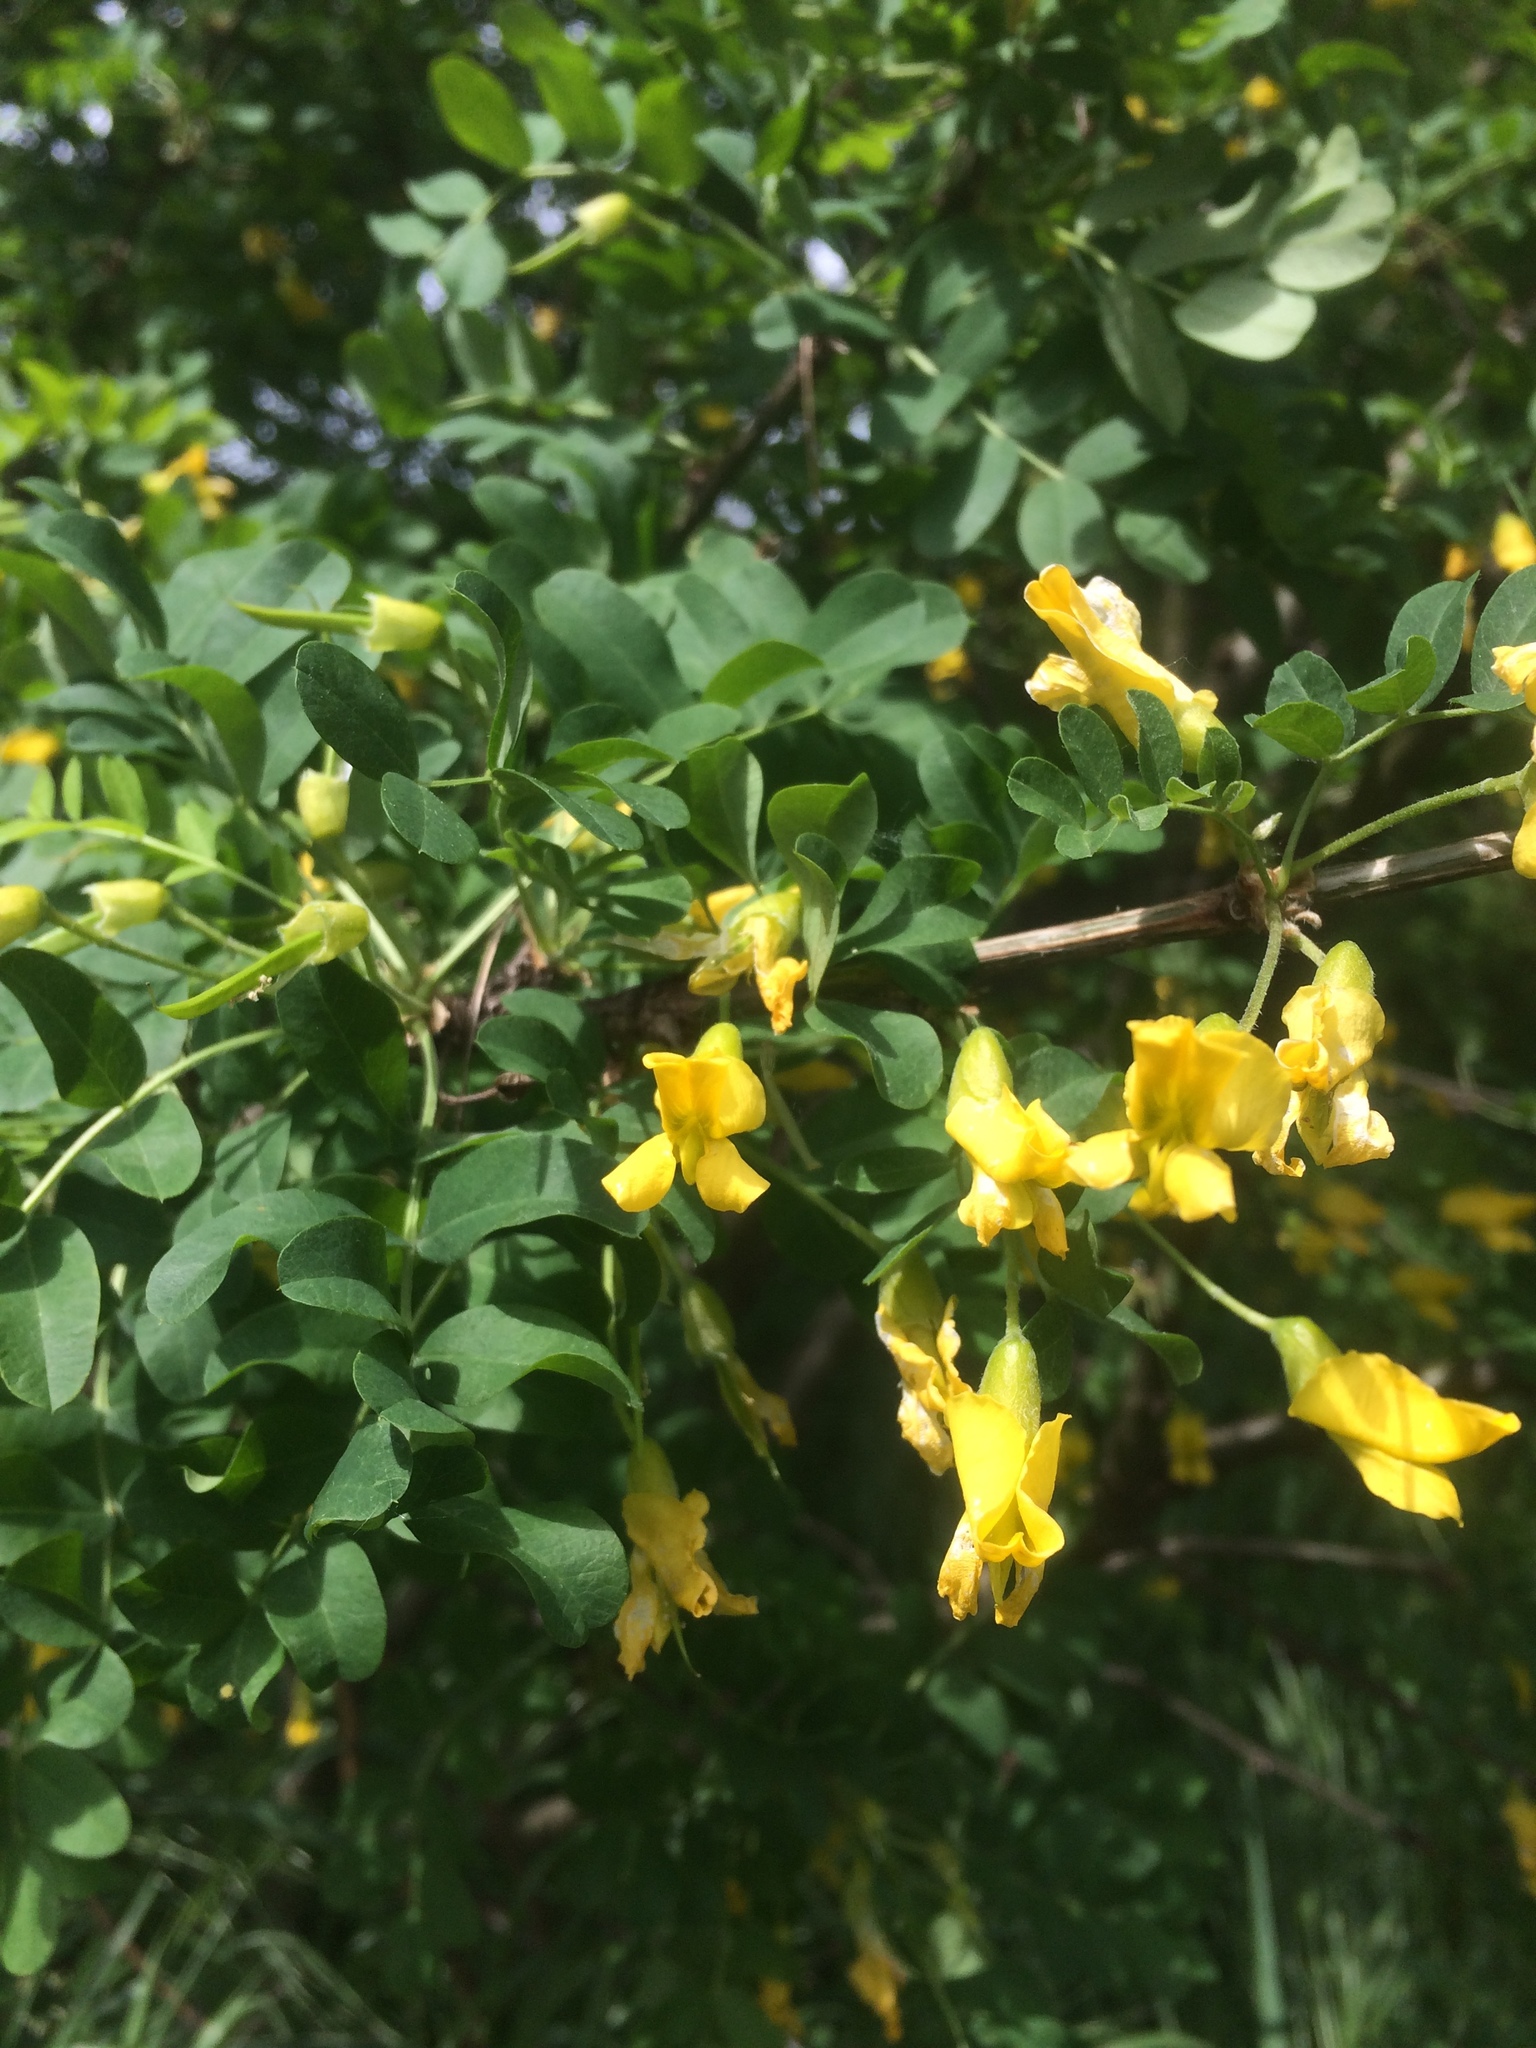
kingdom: Plantae
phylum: Tracheophyta
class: Magnoliopsida
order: Fabales
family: Fabaceae
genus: Caragana
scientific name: Caragana arborescens
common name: Siberian peashrub
